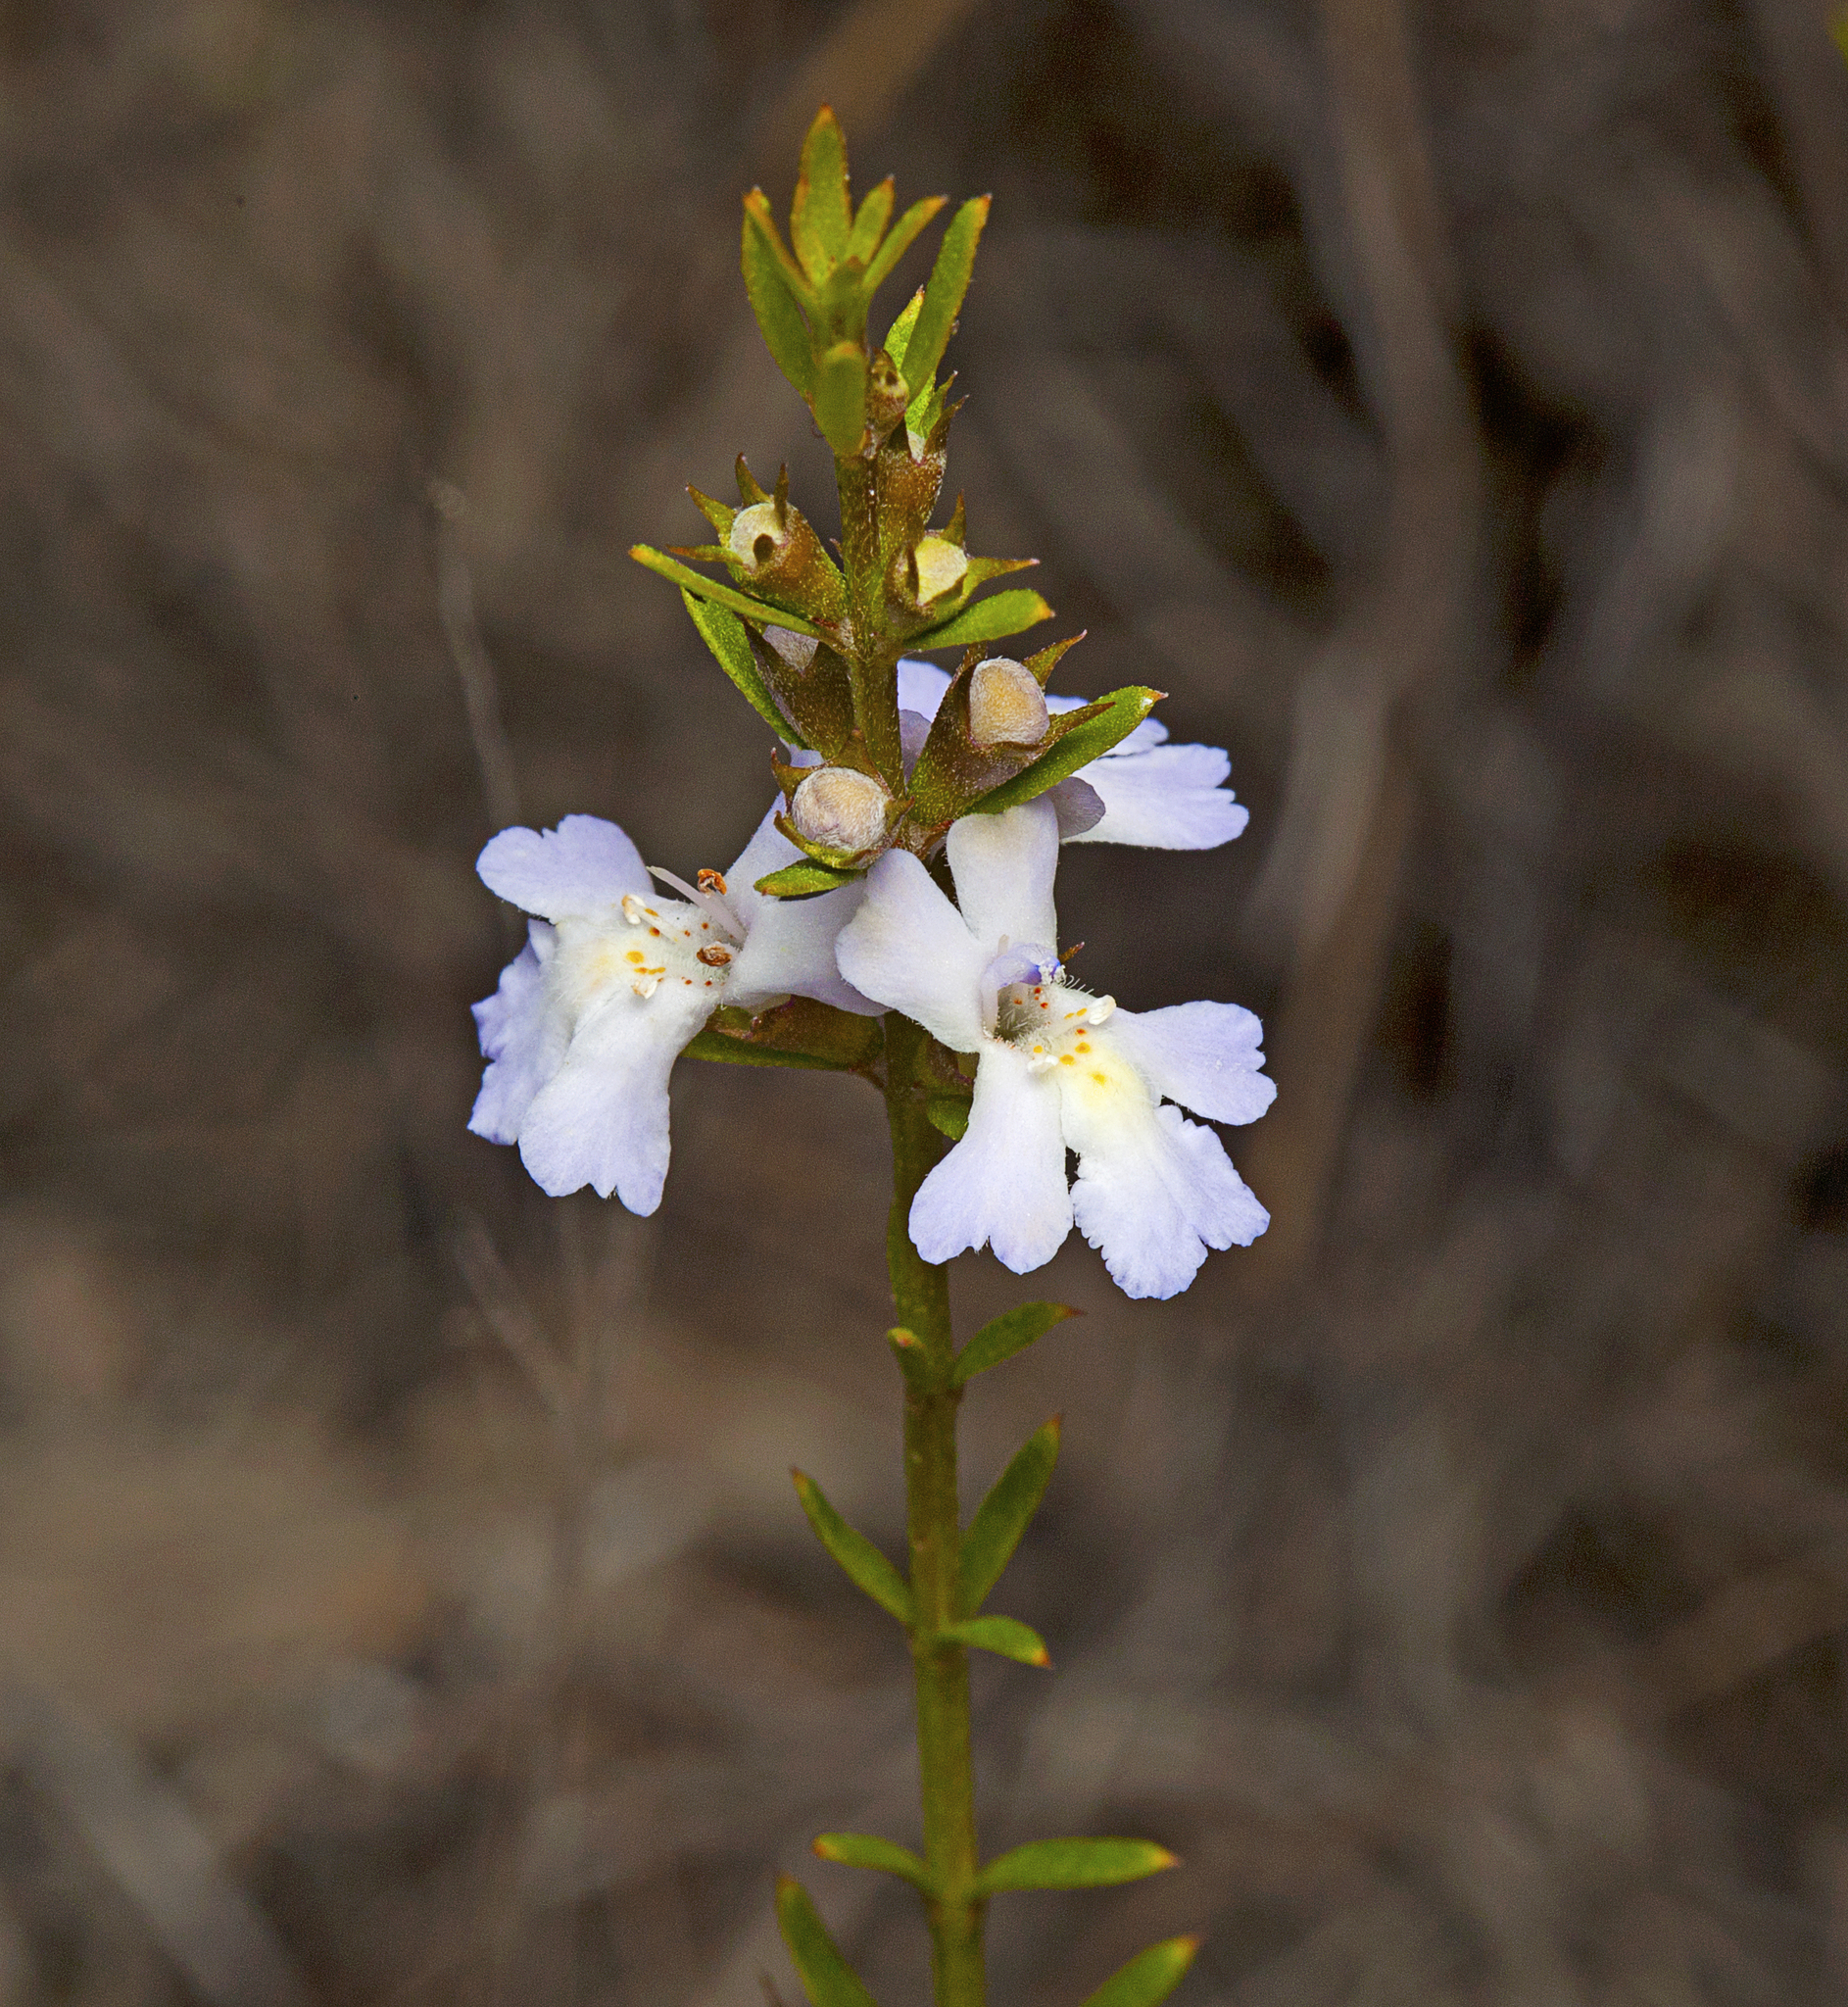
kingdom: Plantae
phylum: Tracheophyta
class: Magnoliopsida
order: Lamiales
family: Lamiaceae
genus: Westringia
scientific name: Westringia tenuicaulis
